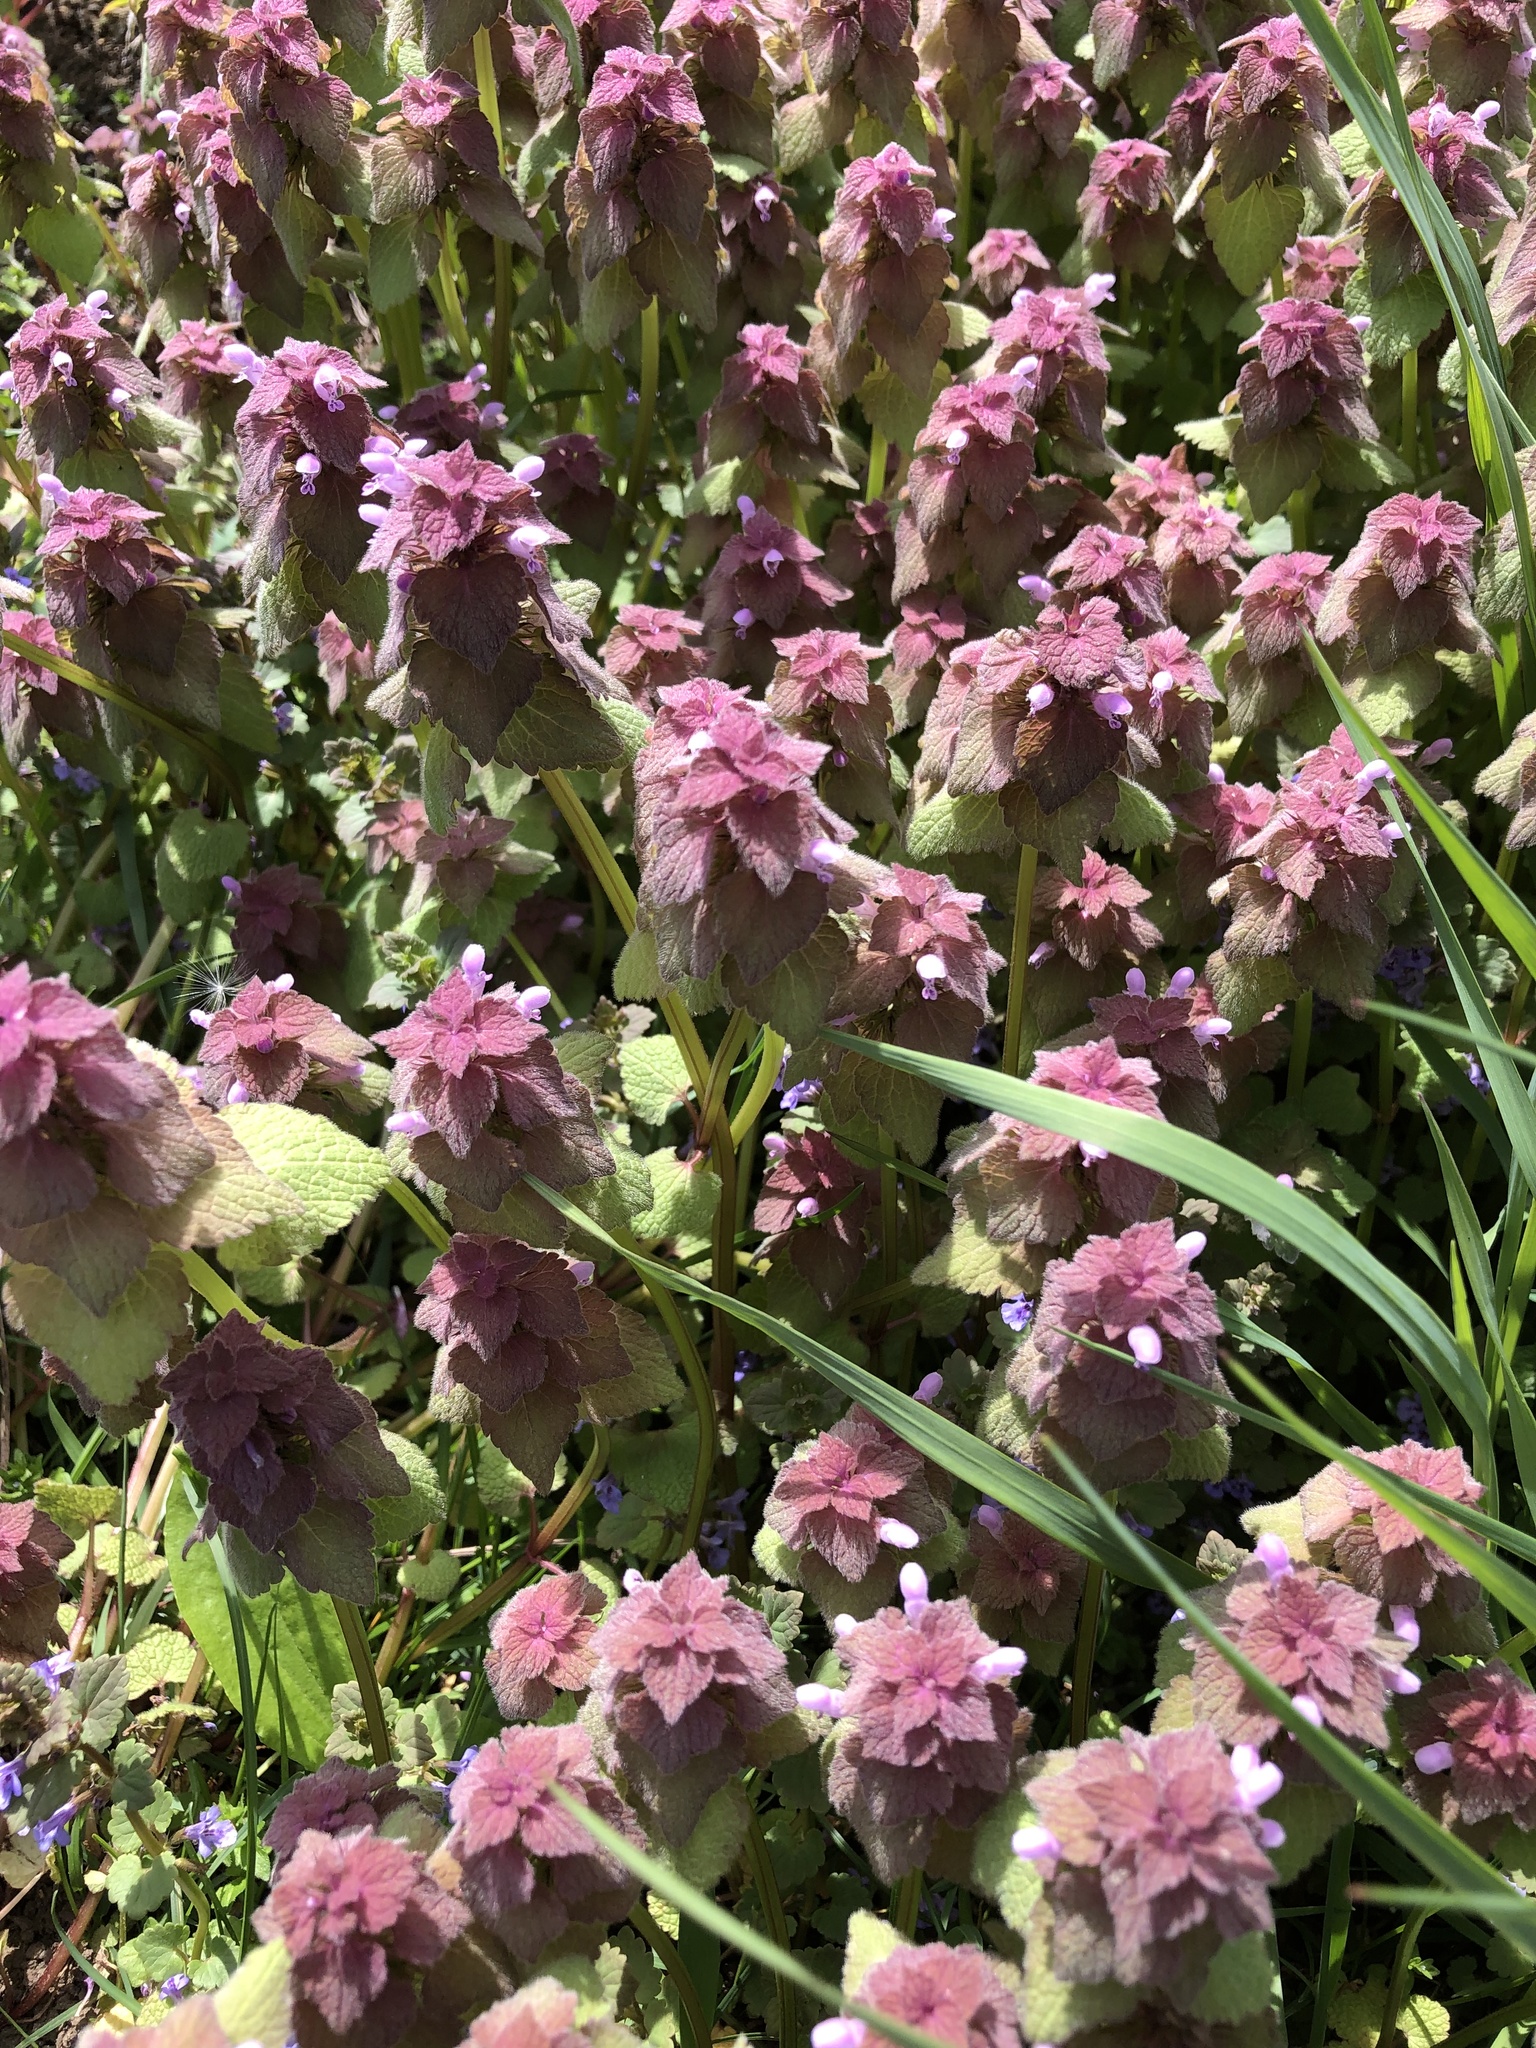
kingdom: Plantae
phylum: Tracheophyta
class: Magnoliopsida
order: Lamiales
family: Lamiaceae
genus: Lamium
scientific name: Lamium purpureum
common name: Red dead-nettle
